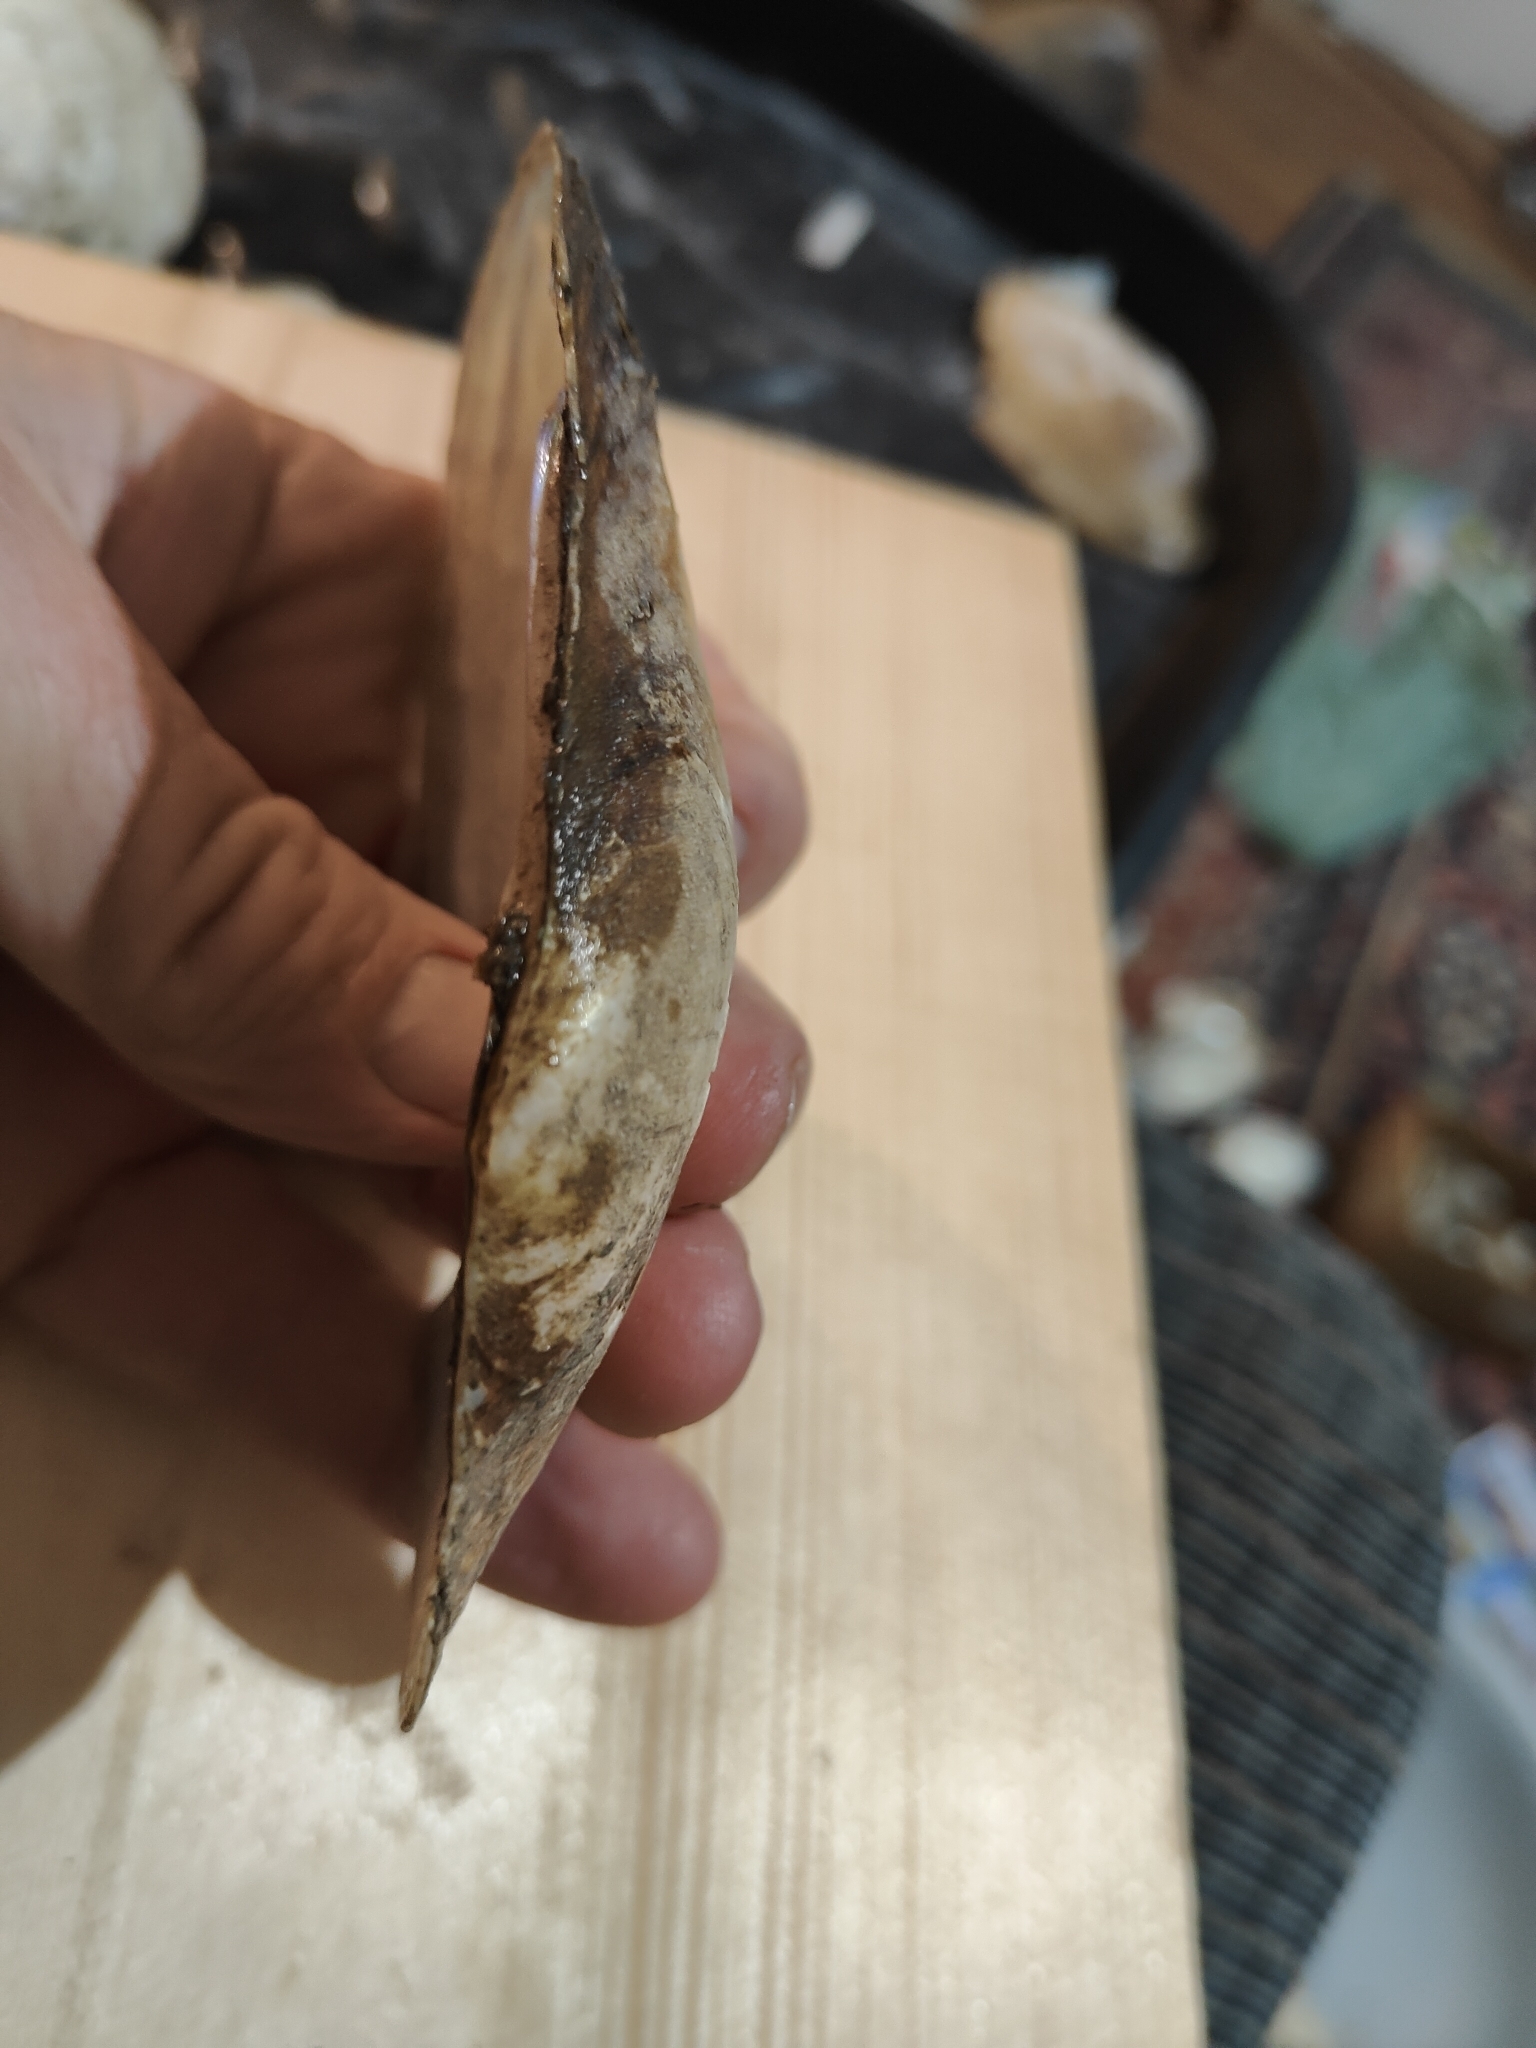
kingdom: Animalia
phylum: Mollusca
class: Bivalvia
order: Unionida
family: Unionidae
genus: Potamilus
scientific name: Potamilus fragilis
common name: Fragile papershell
